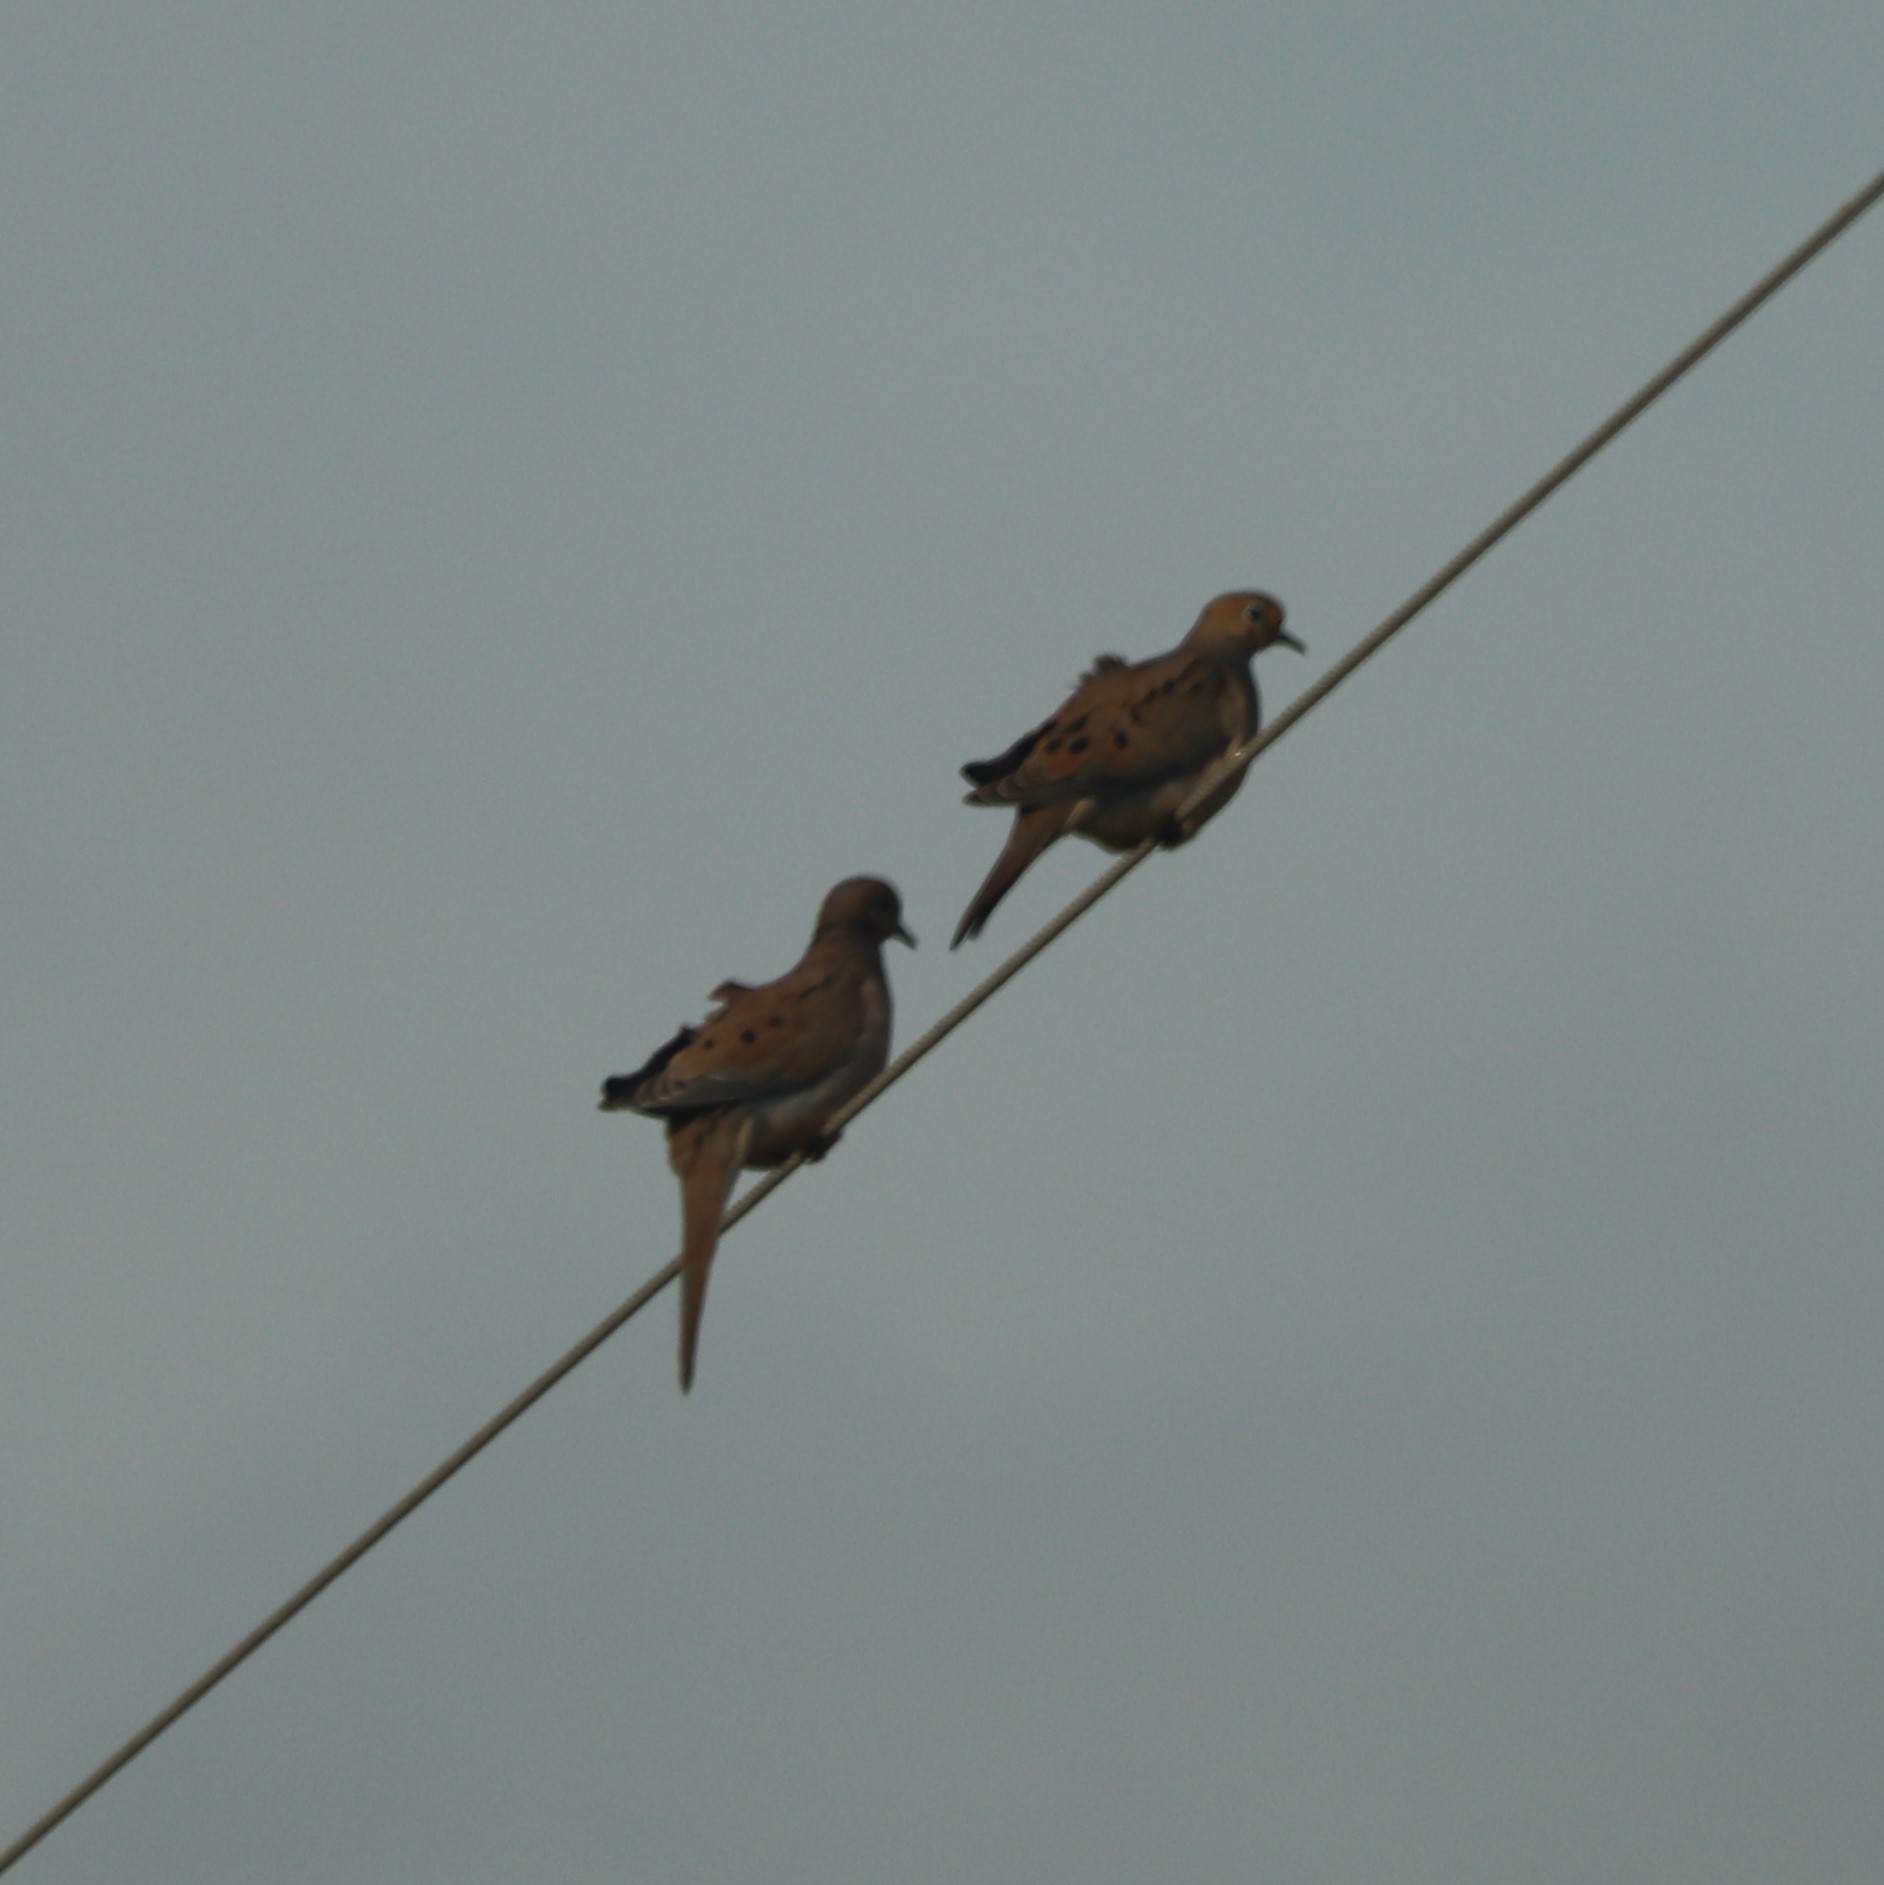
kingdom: Animalia
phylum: Chordata
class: Aves
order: Columbiformes
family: Columbidae
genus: Zenaida
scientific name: Zenaida macroura
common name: Mourning dove
